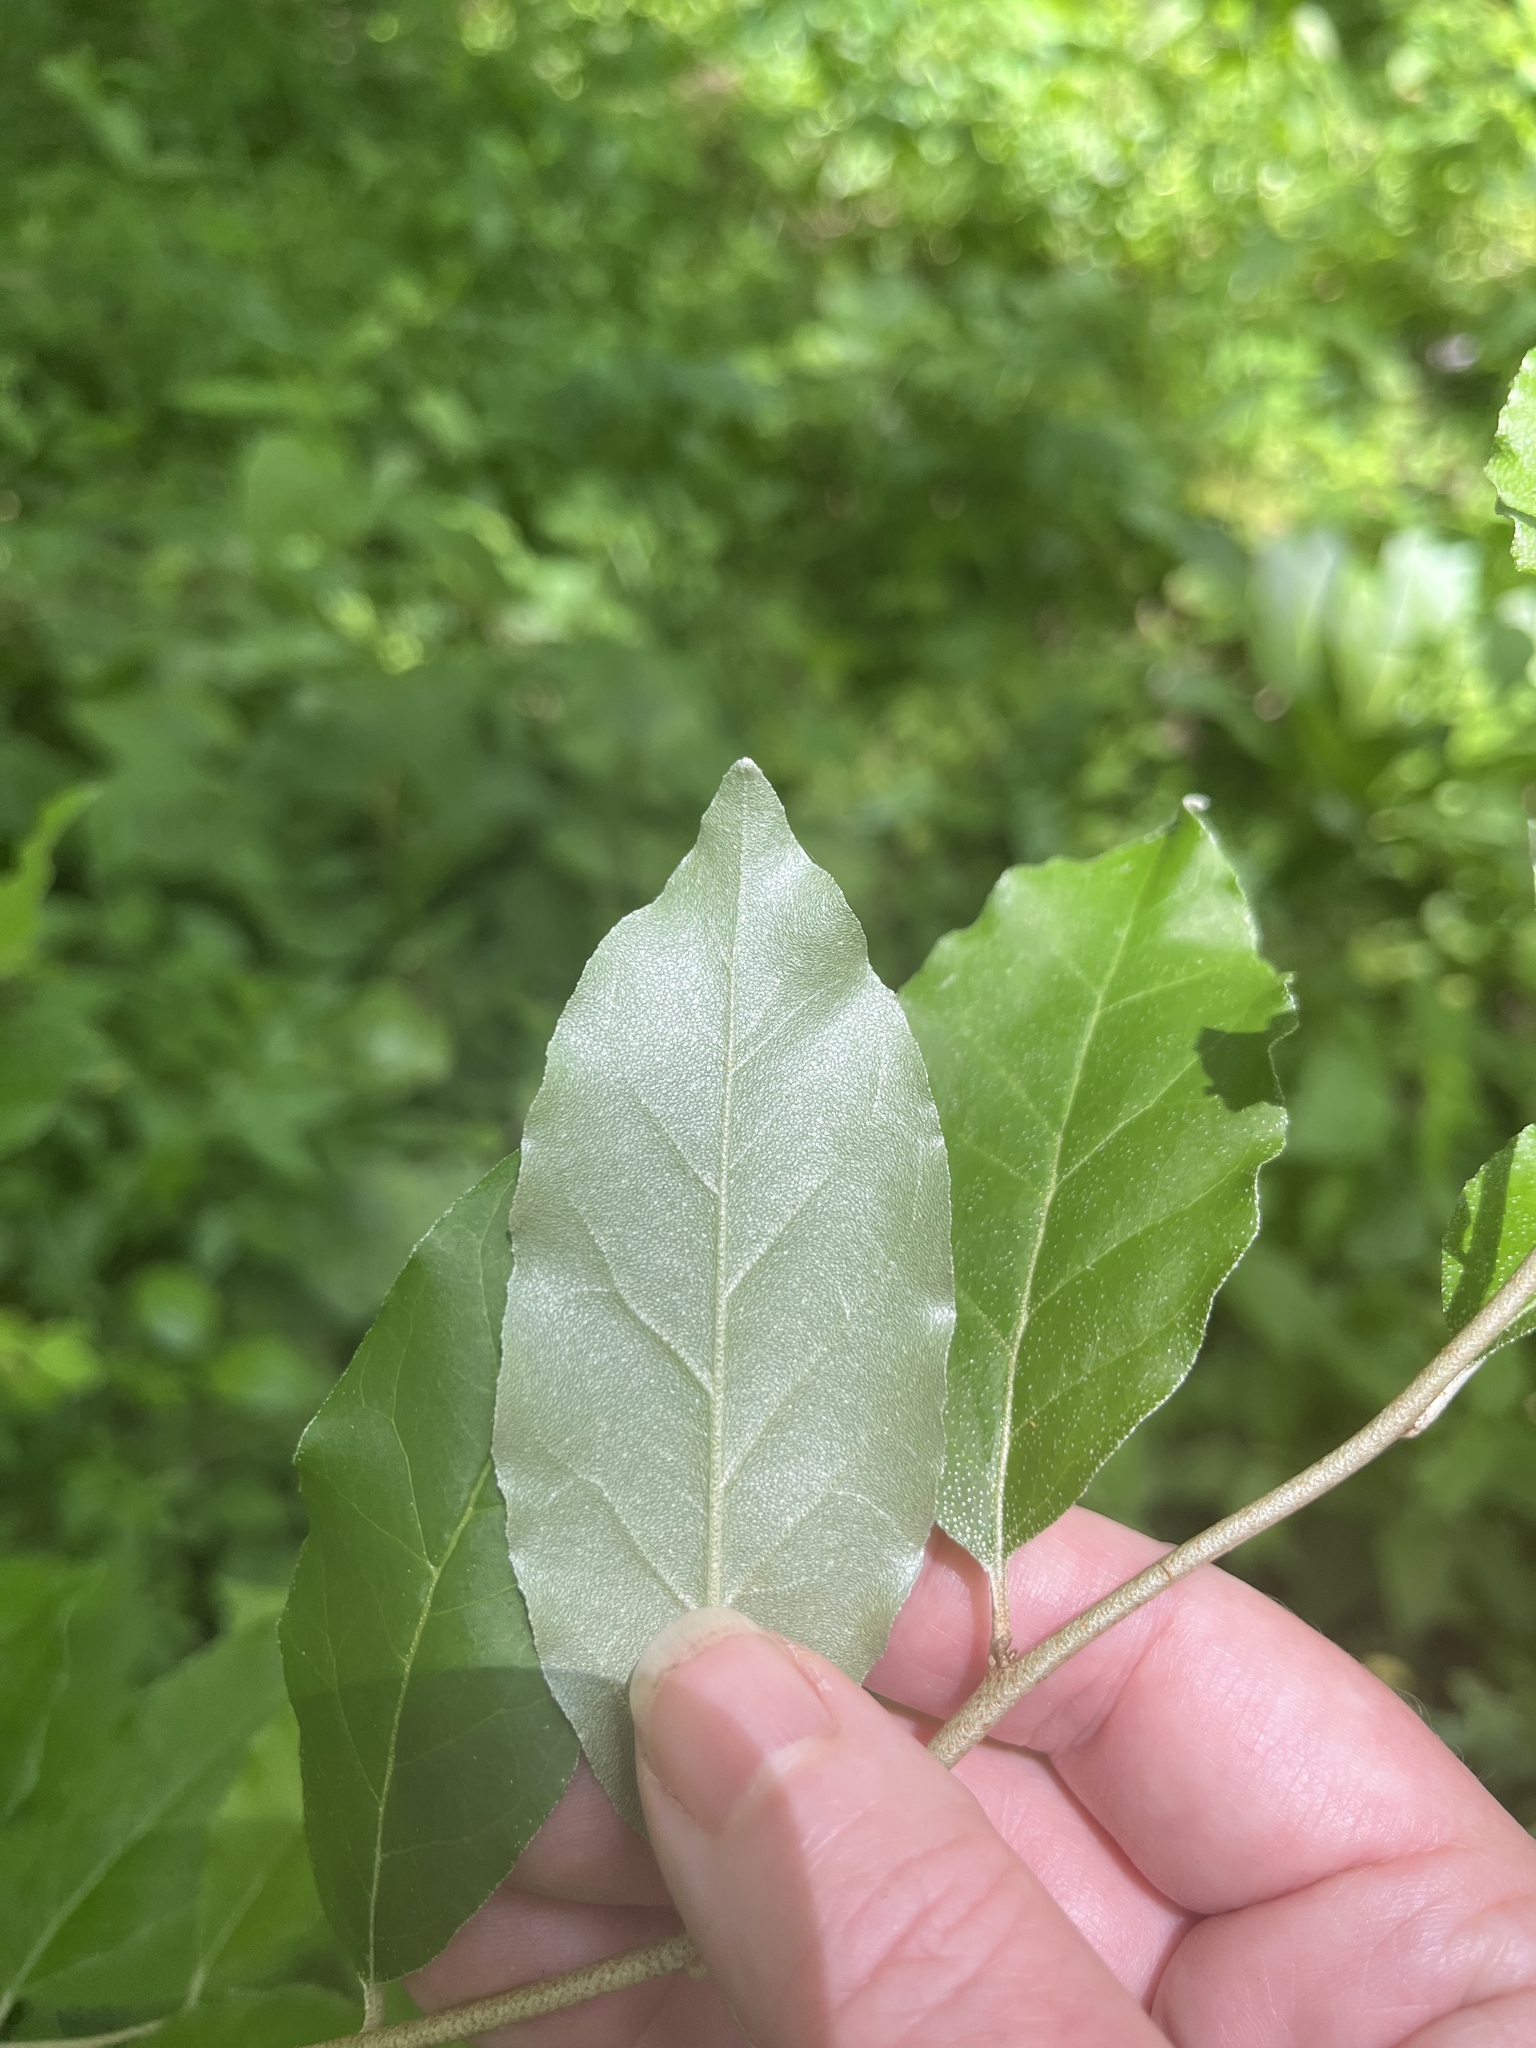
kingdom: Plantae
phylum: Tracheophyta
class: Magnoliopsida
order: Rosales
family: Elaeagnaceae
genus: Elaeagnus
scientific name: Elaeagnus umbellata
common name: Autumn olive
